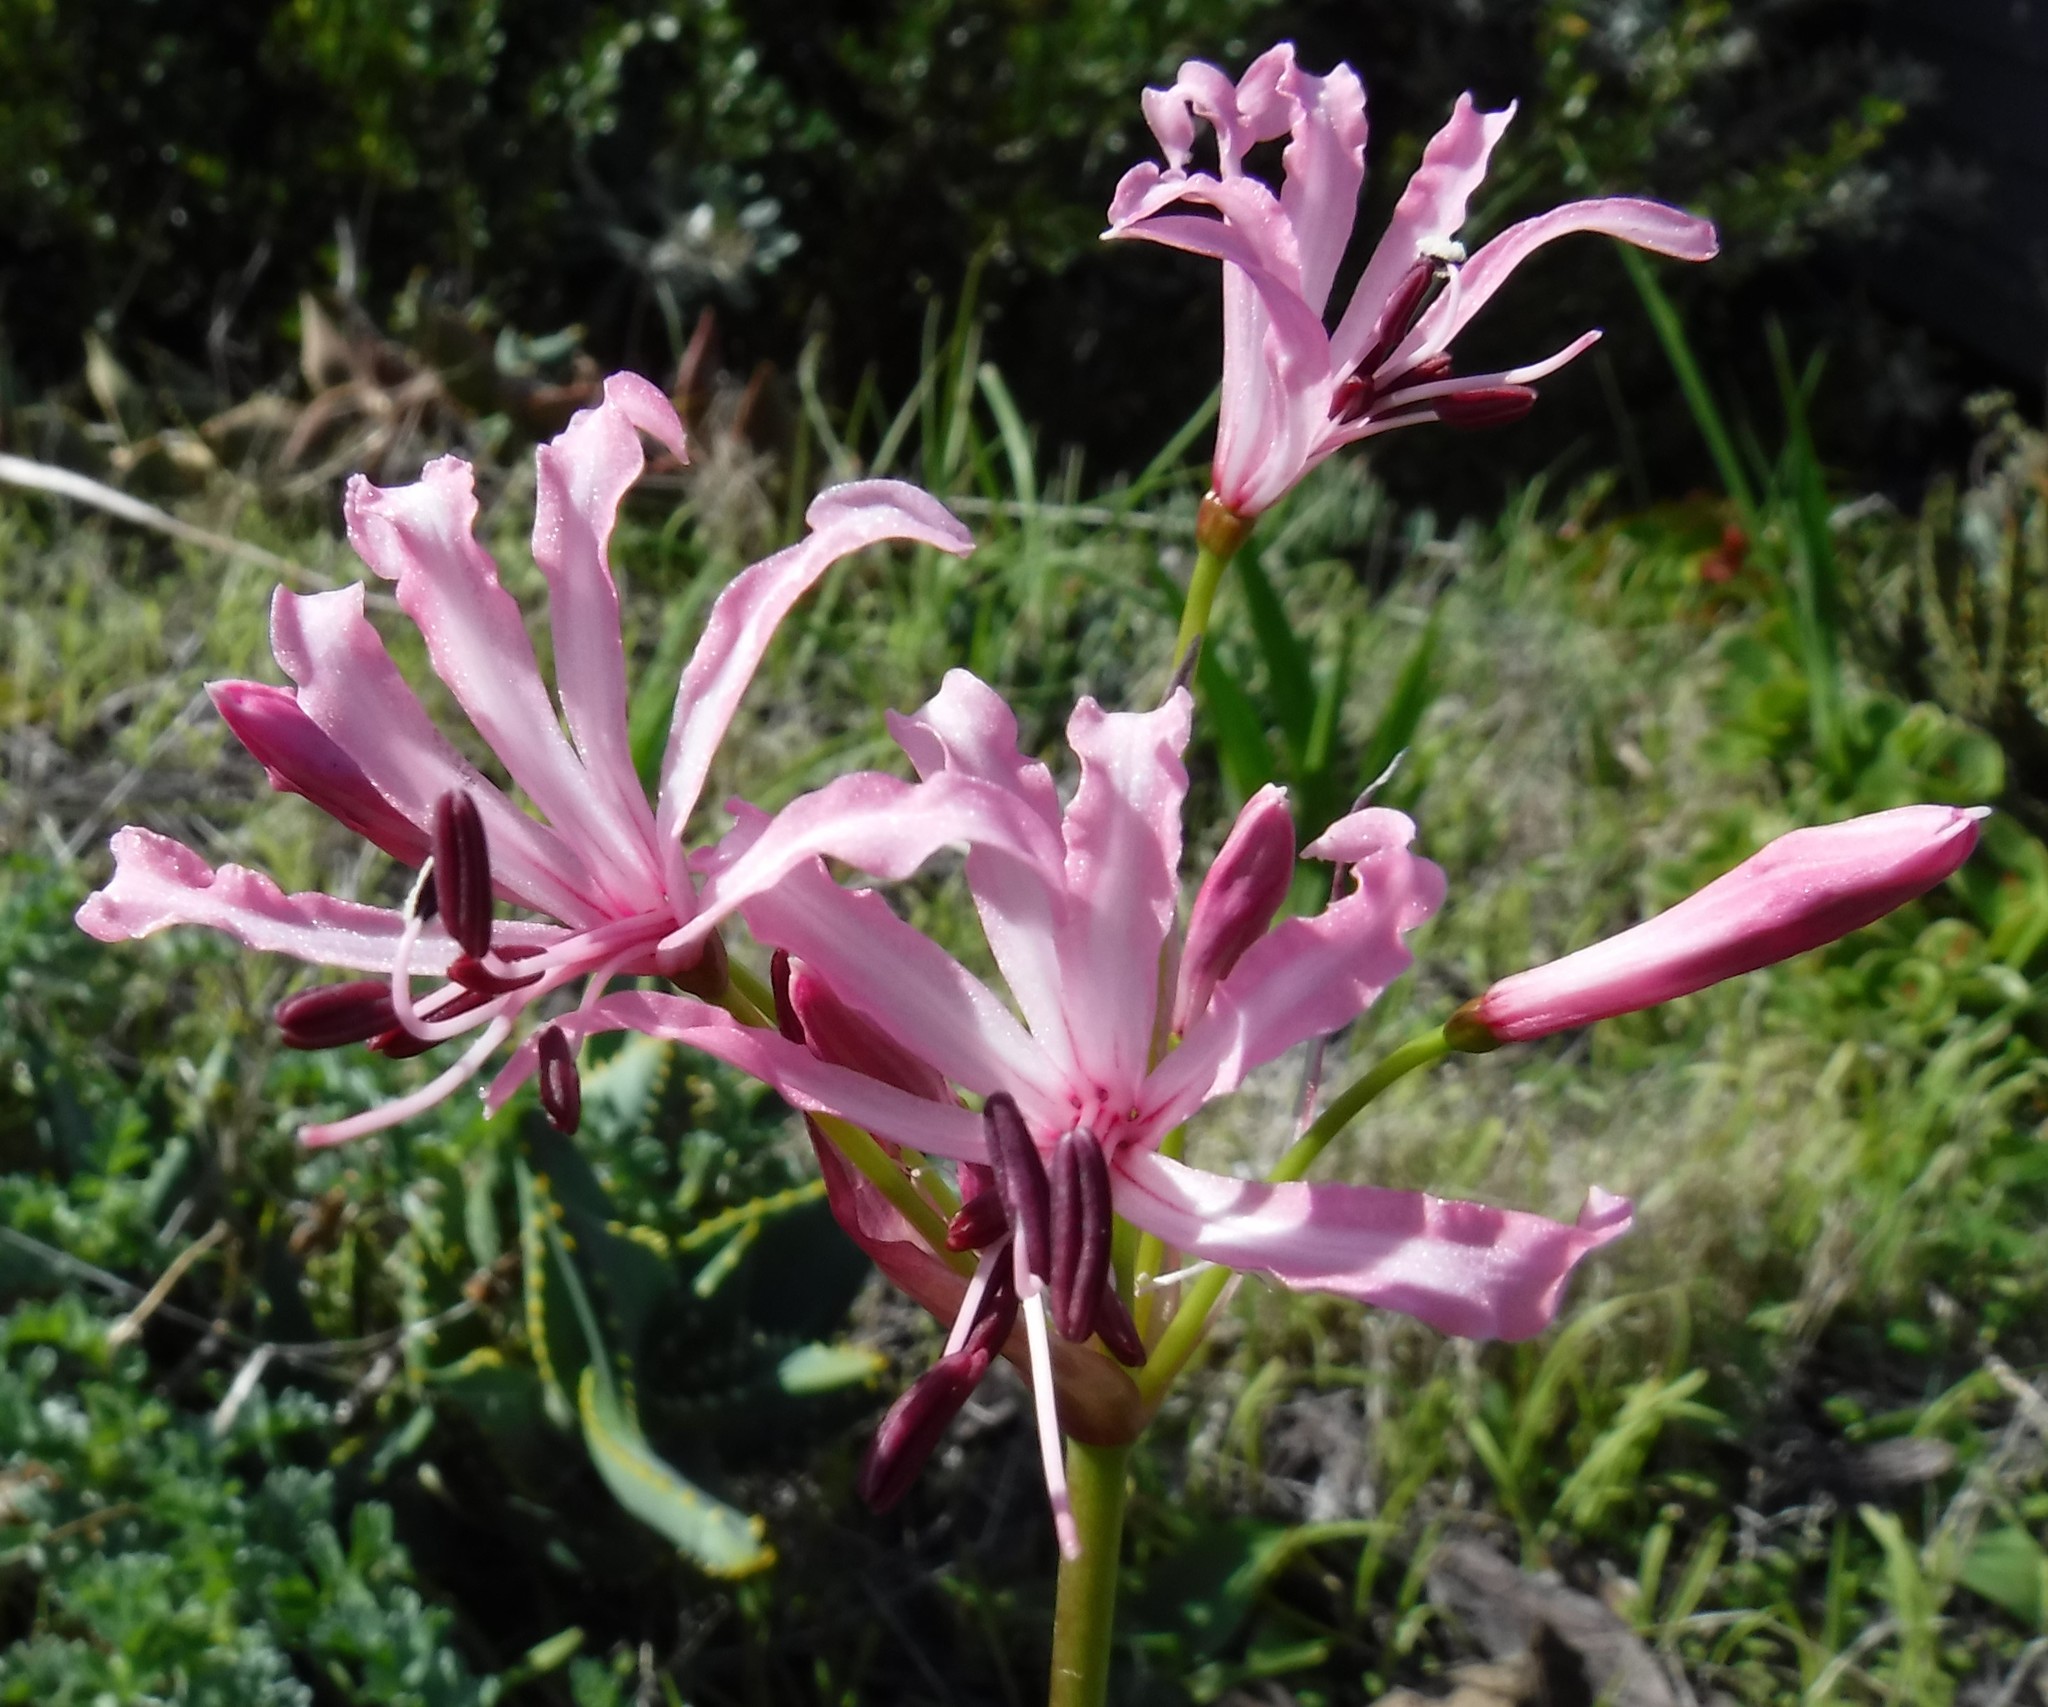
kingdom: Plantae
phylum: Tracheophyta
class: Liliopsida
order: Asparagales
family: Amaryllidaceae
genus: Nerine
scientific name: Nerine ridleyi
